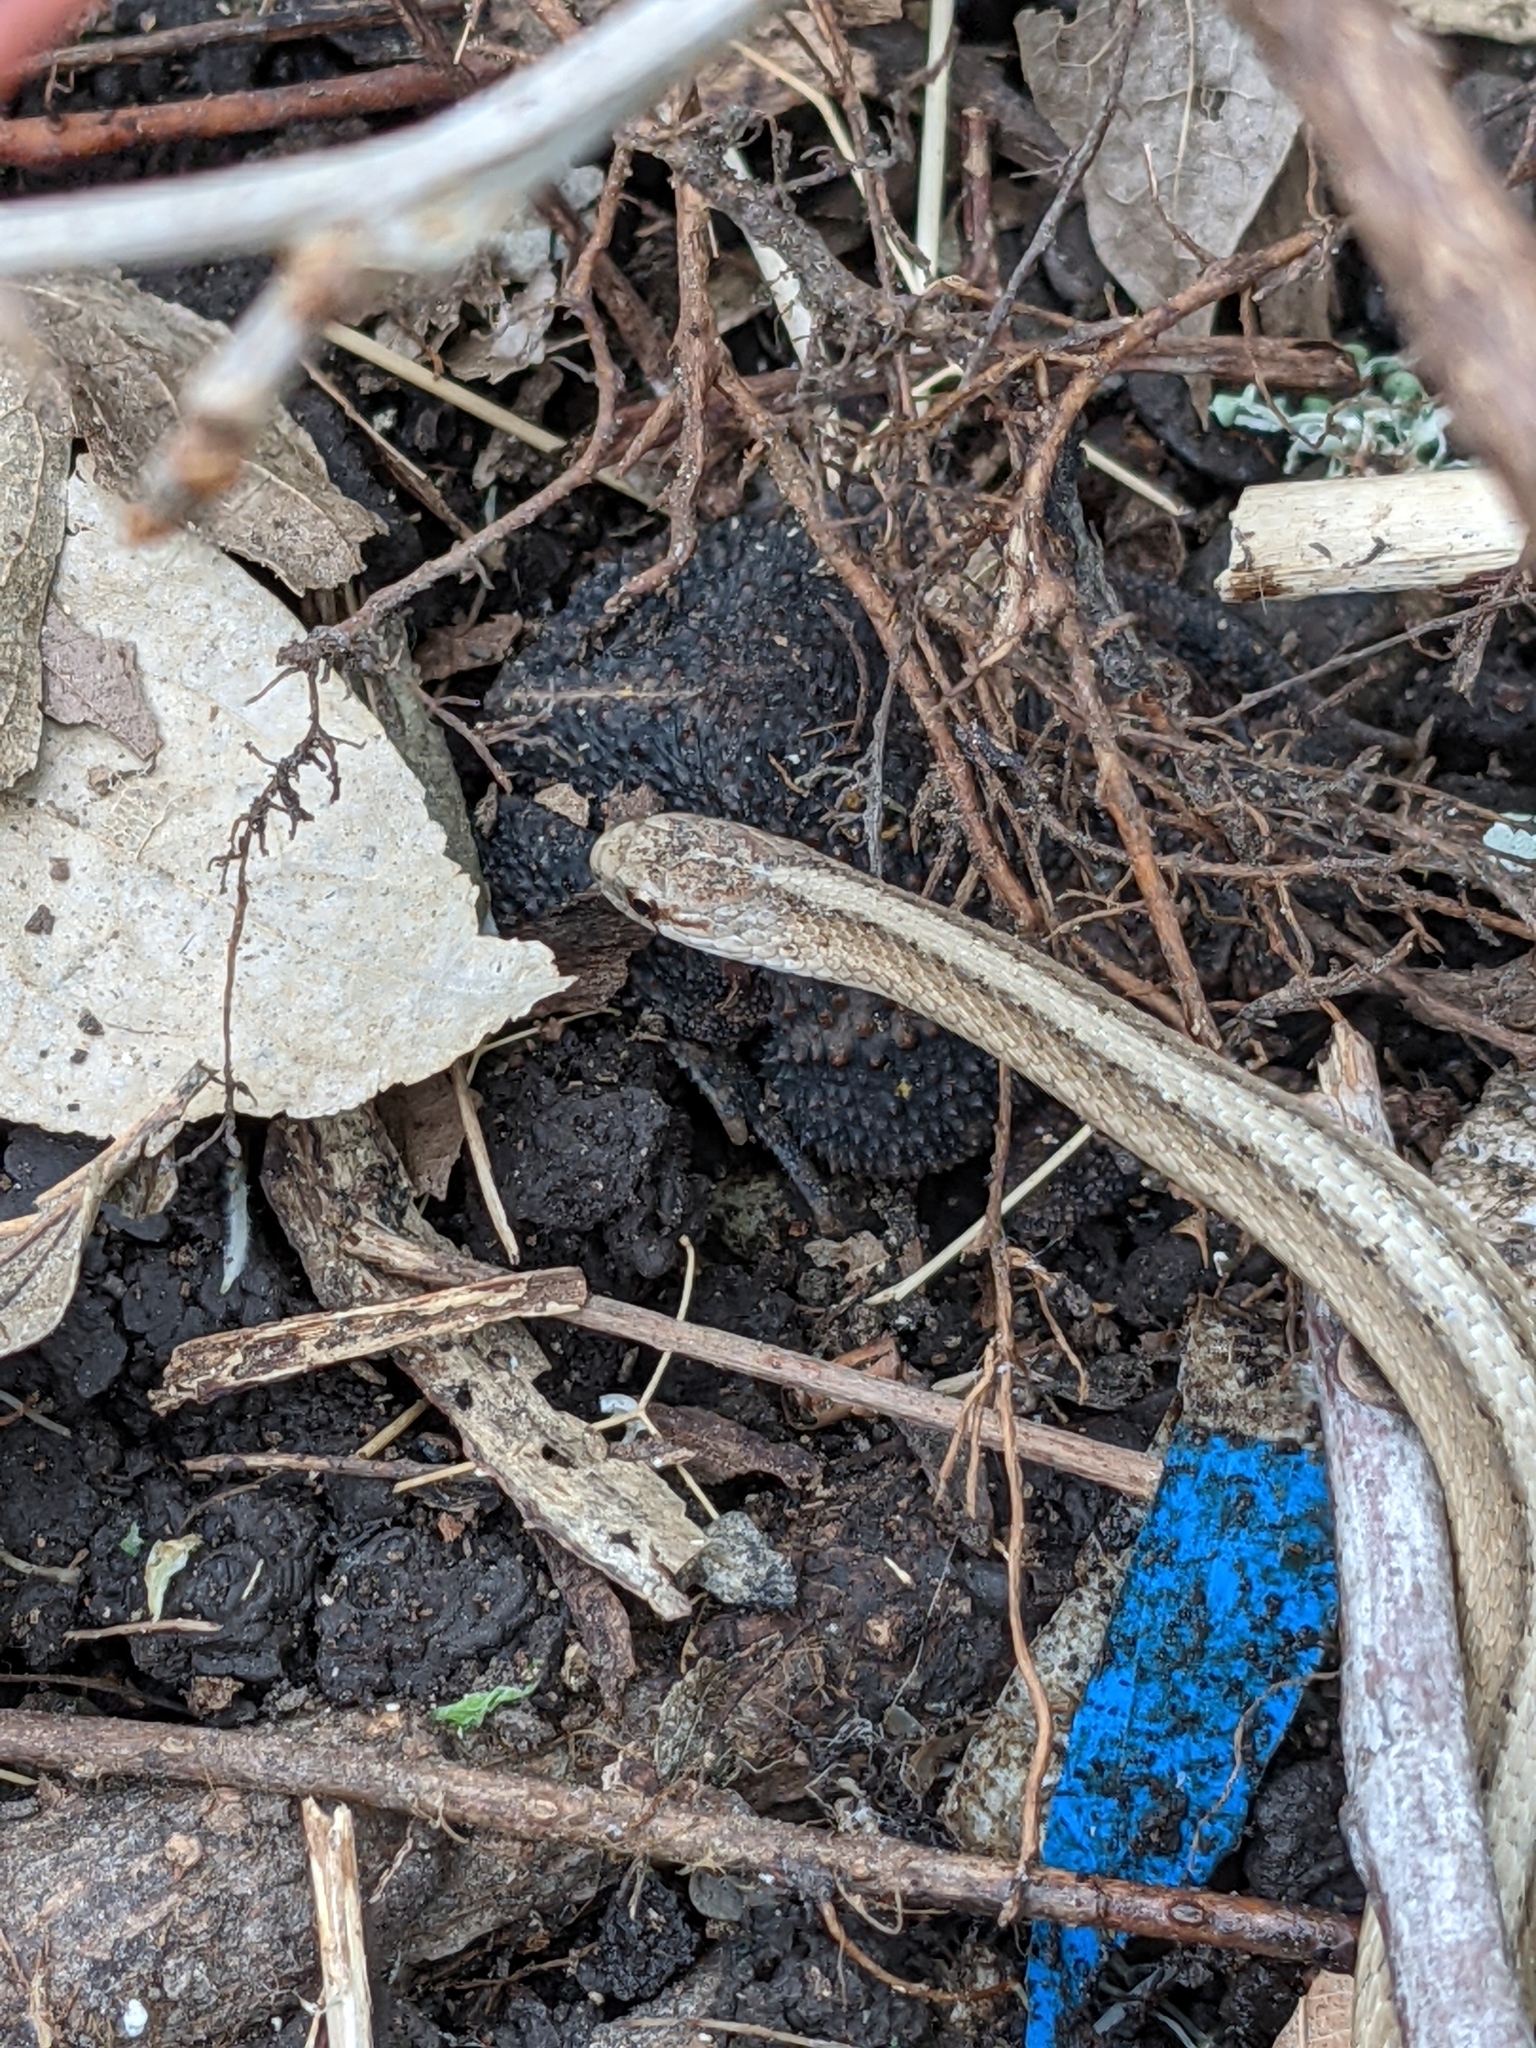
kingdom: Animalia
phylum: Chordata
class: Squamata
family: Colubridae
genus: Storeria
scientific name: Storeria dekayi
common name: (dekay’s) brown snake
